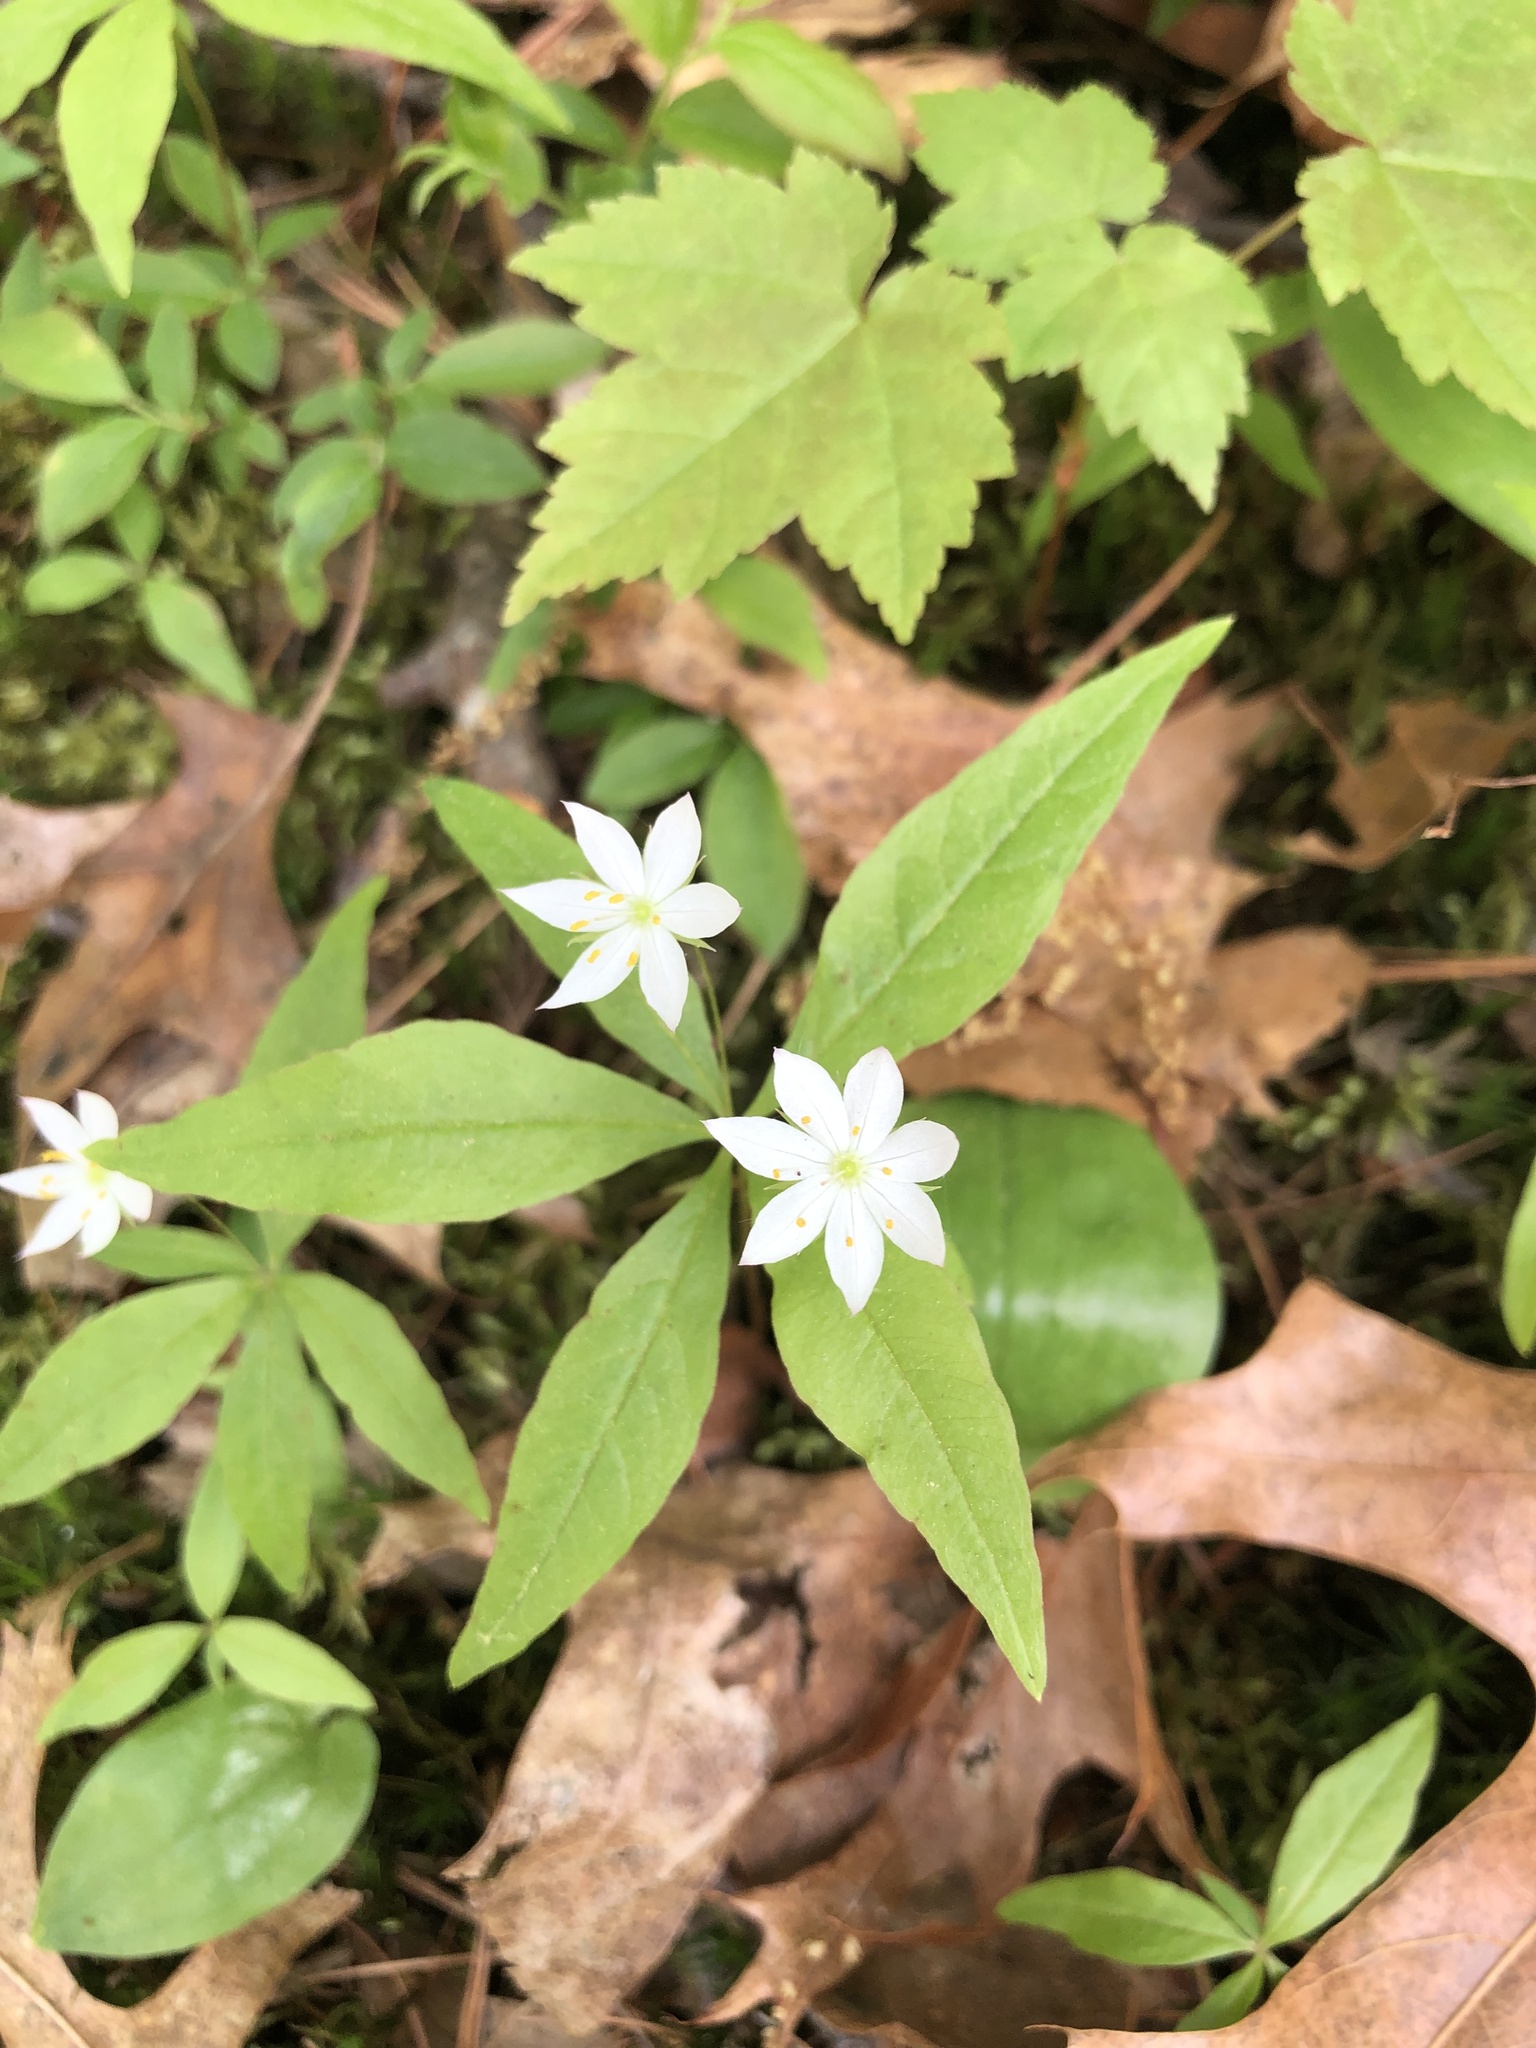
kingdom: Plantae
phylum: Tracheophyta
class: Magnoliopsida
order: Ericales
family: Primulaceae
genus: Lysimachia
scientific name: Lysimachia borealis
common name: American starflower
